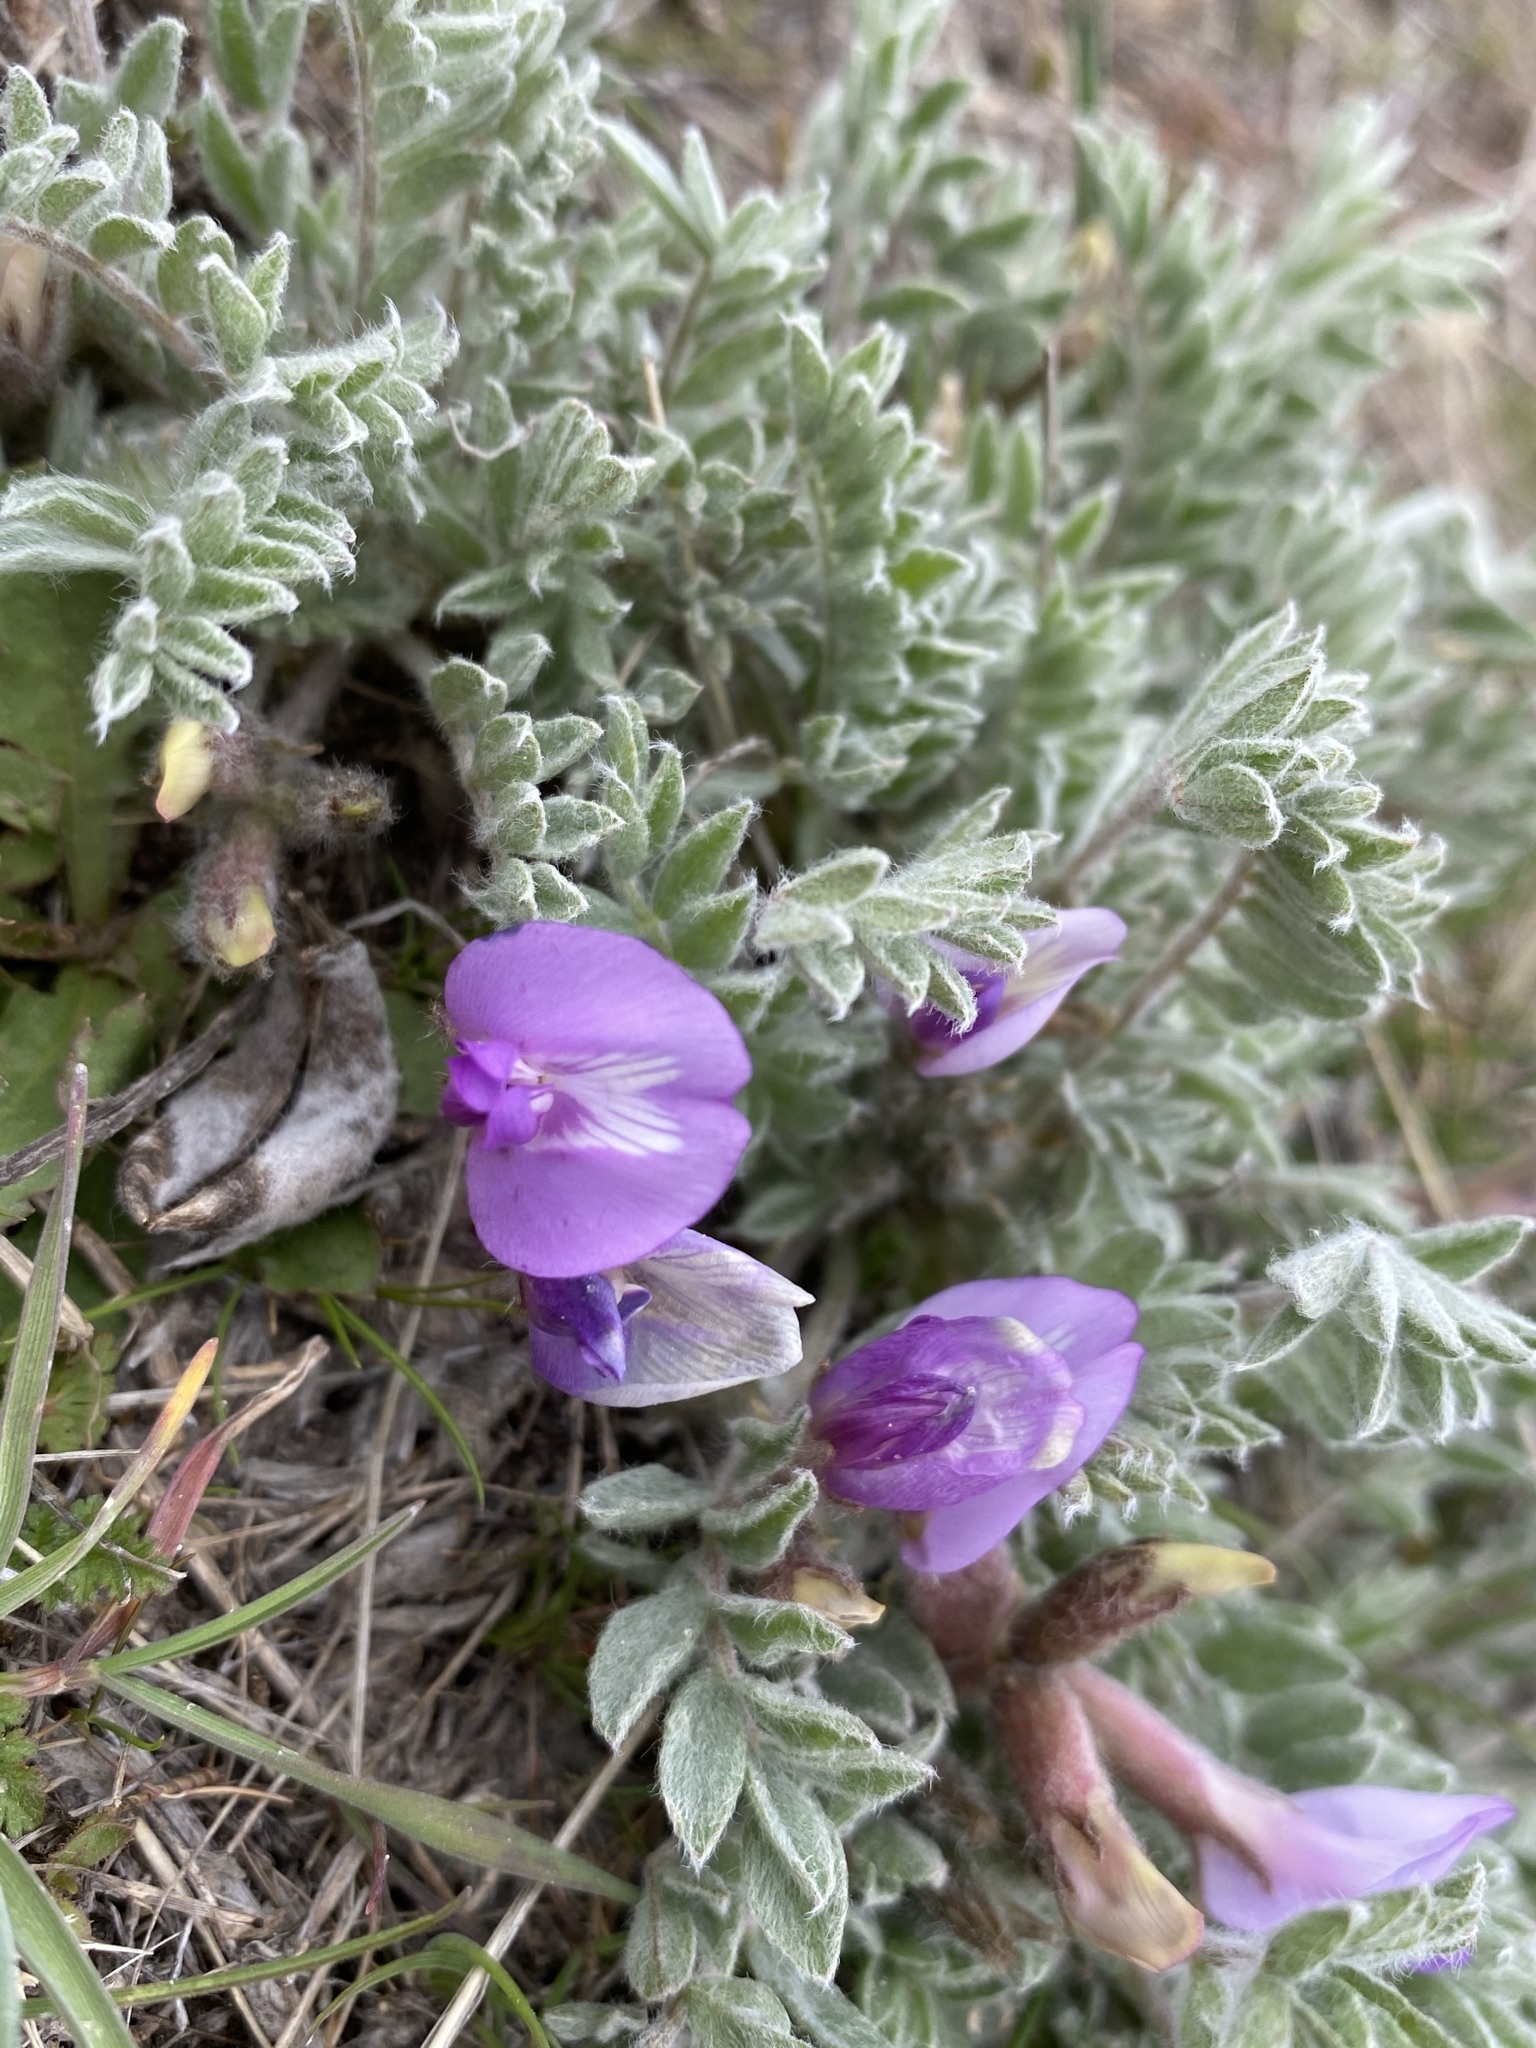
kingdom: Plantae
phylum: Tracheophyta
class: Magnoliopsida
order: Fabales
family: Fabaceae
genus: Astragalus
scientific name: Astragalus purshii
